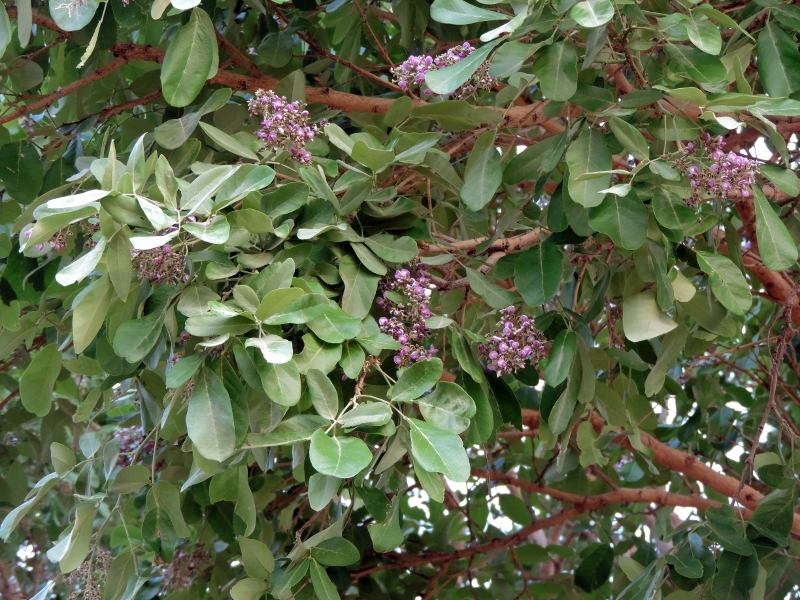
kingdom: Plantae
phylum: Tracheophyta
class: Magnoliopsida
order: Fabales
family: Fabaceae
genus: Philenoptera
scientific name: Philenoptera violacea
